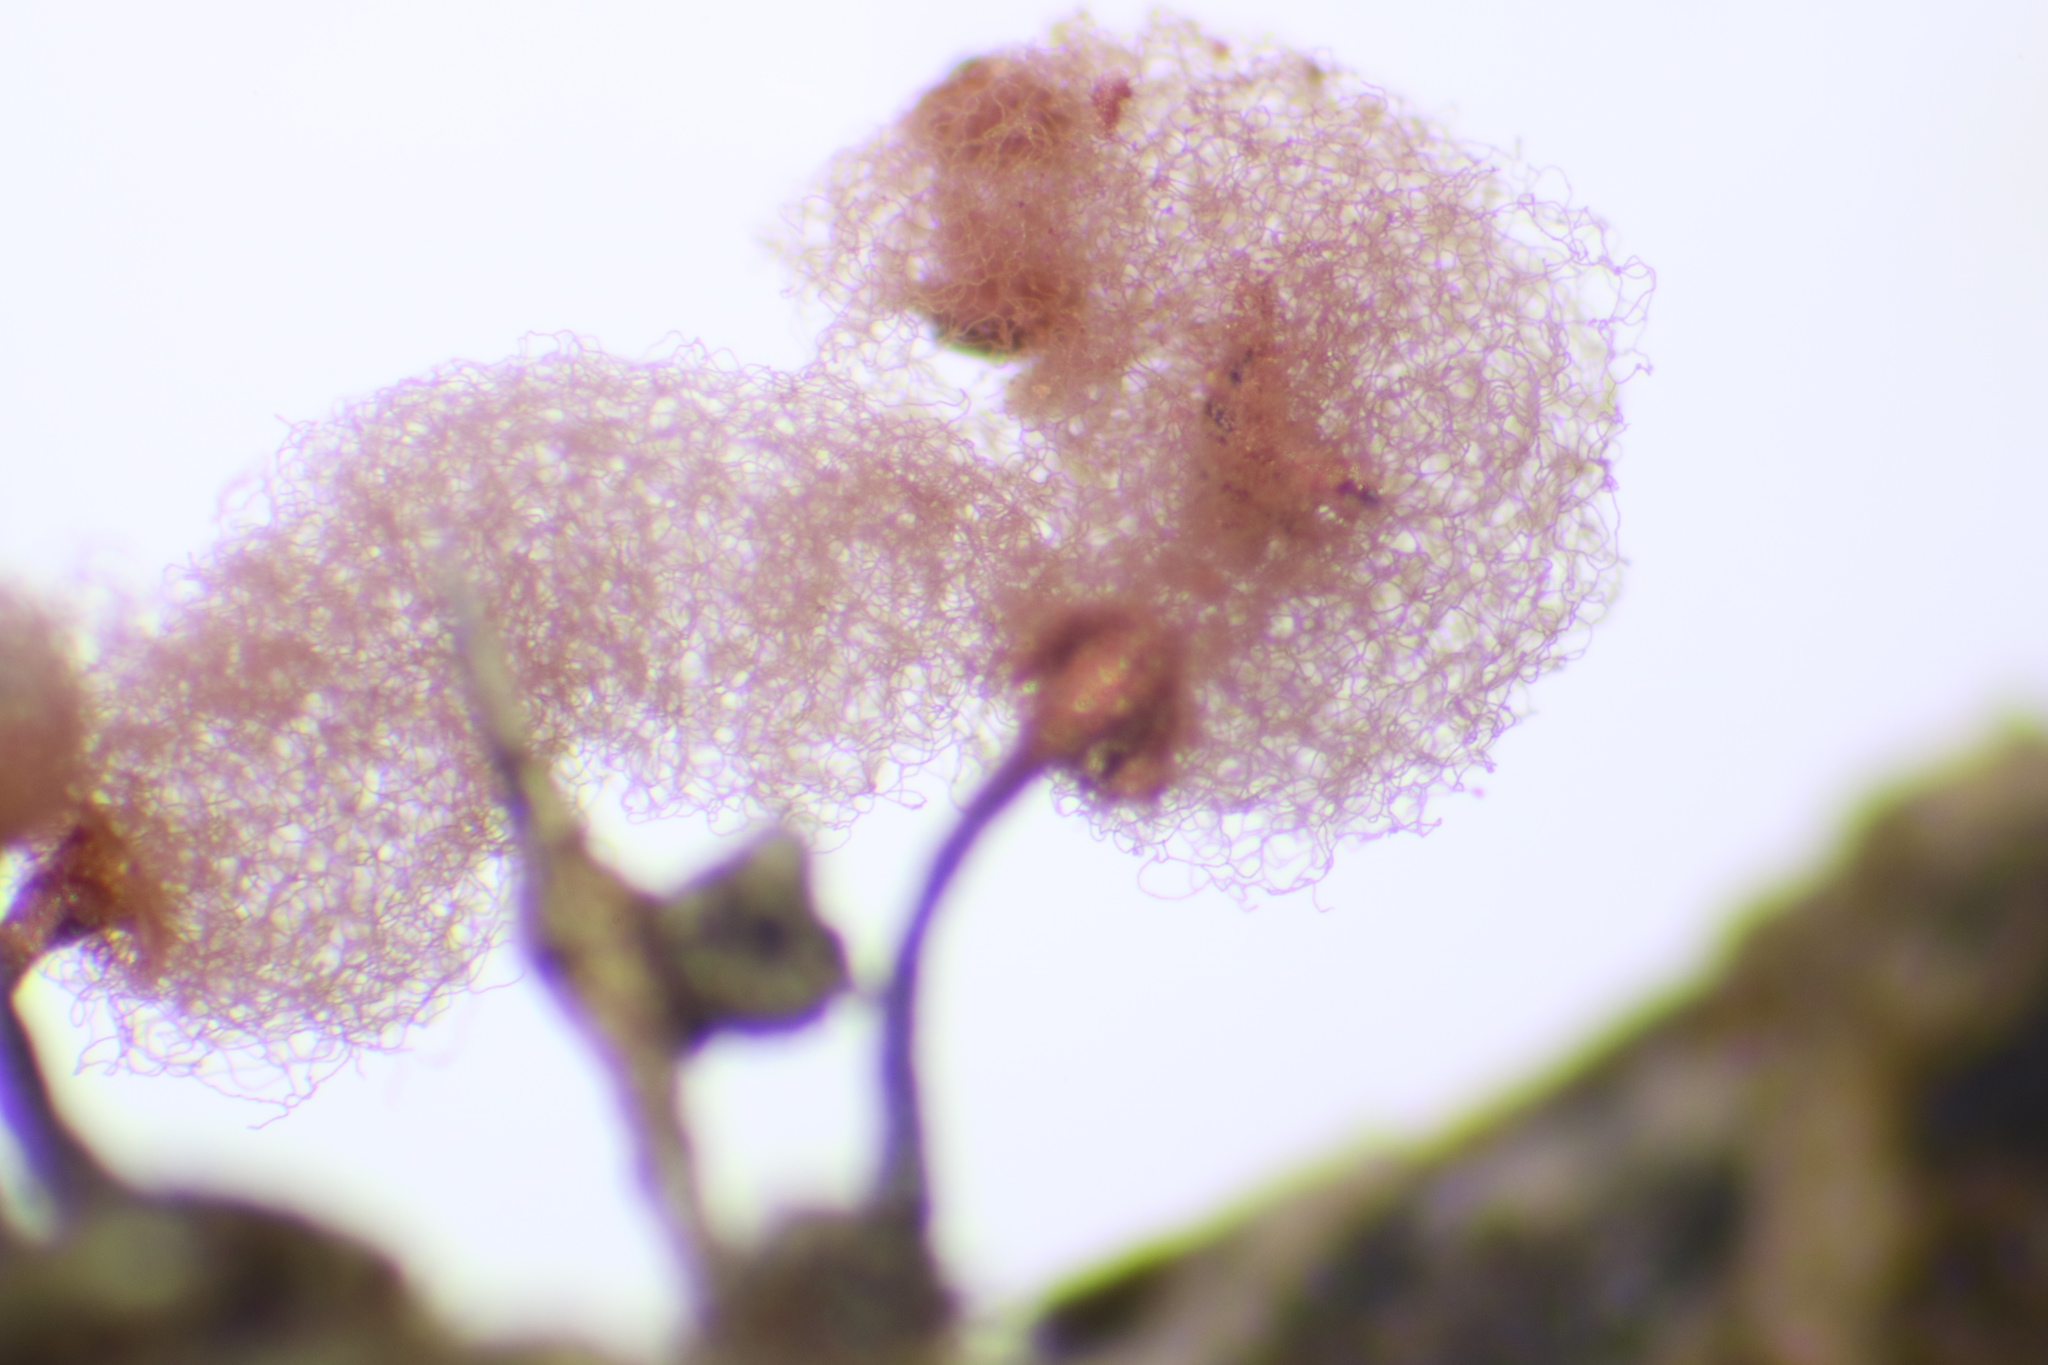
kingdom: Protozoa
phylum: Mycetozoa
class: Myxomycetes
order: Trichiales
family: Arcyriaceae
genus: Arcyria
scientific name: Arcyria denudata
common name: Carnival candy slime mold
